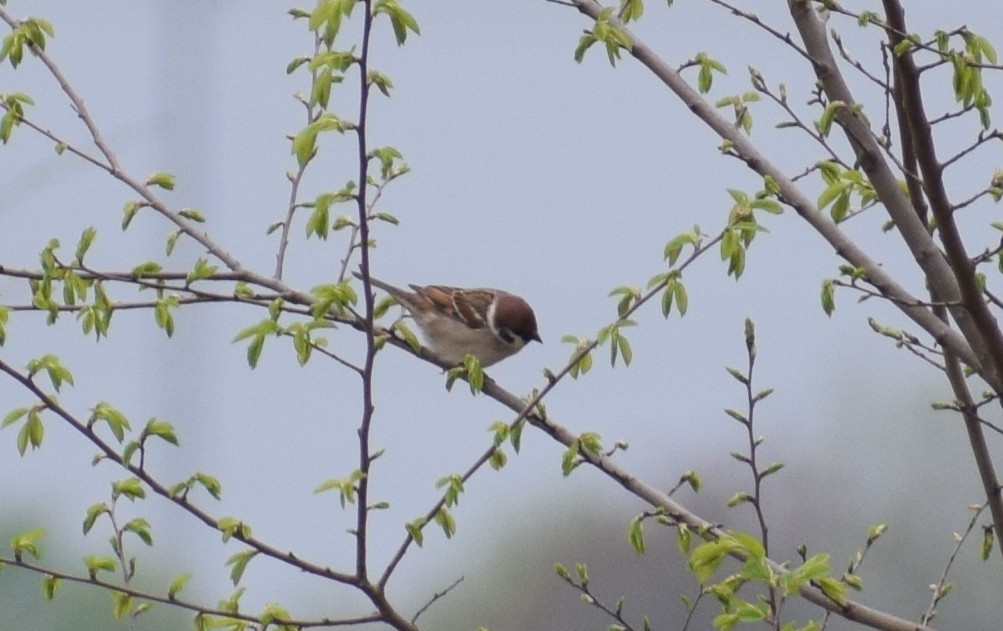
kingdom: Animalia
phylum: Chordata
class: Aves
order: Passeriformes
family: Passeridae
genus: Passer
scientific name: Passer montanus
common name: Eurasian tree sparrow
